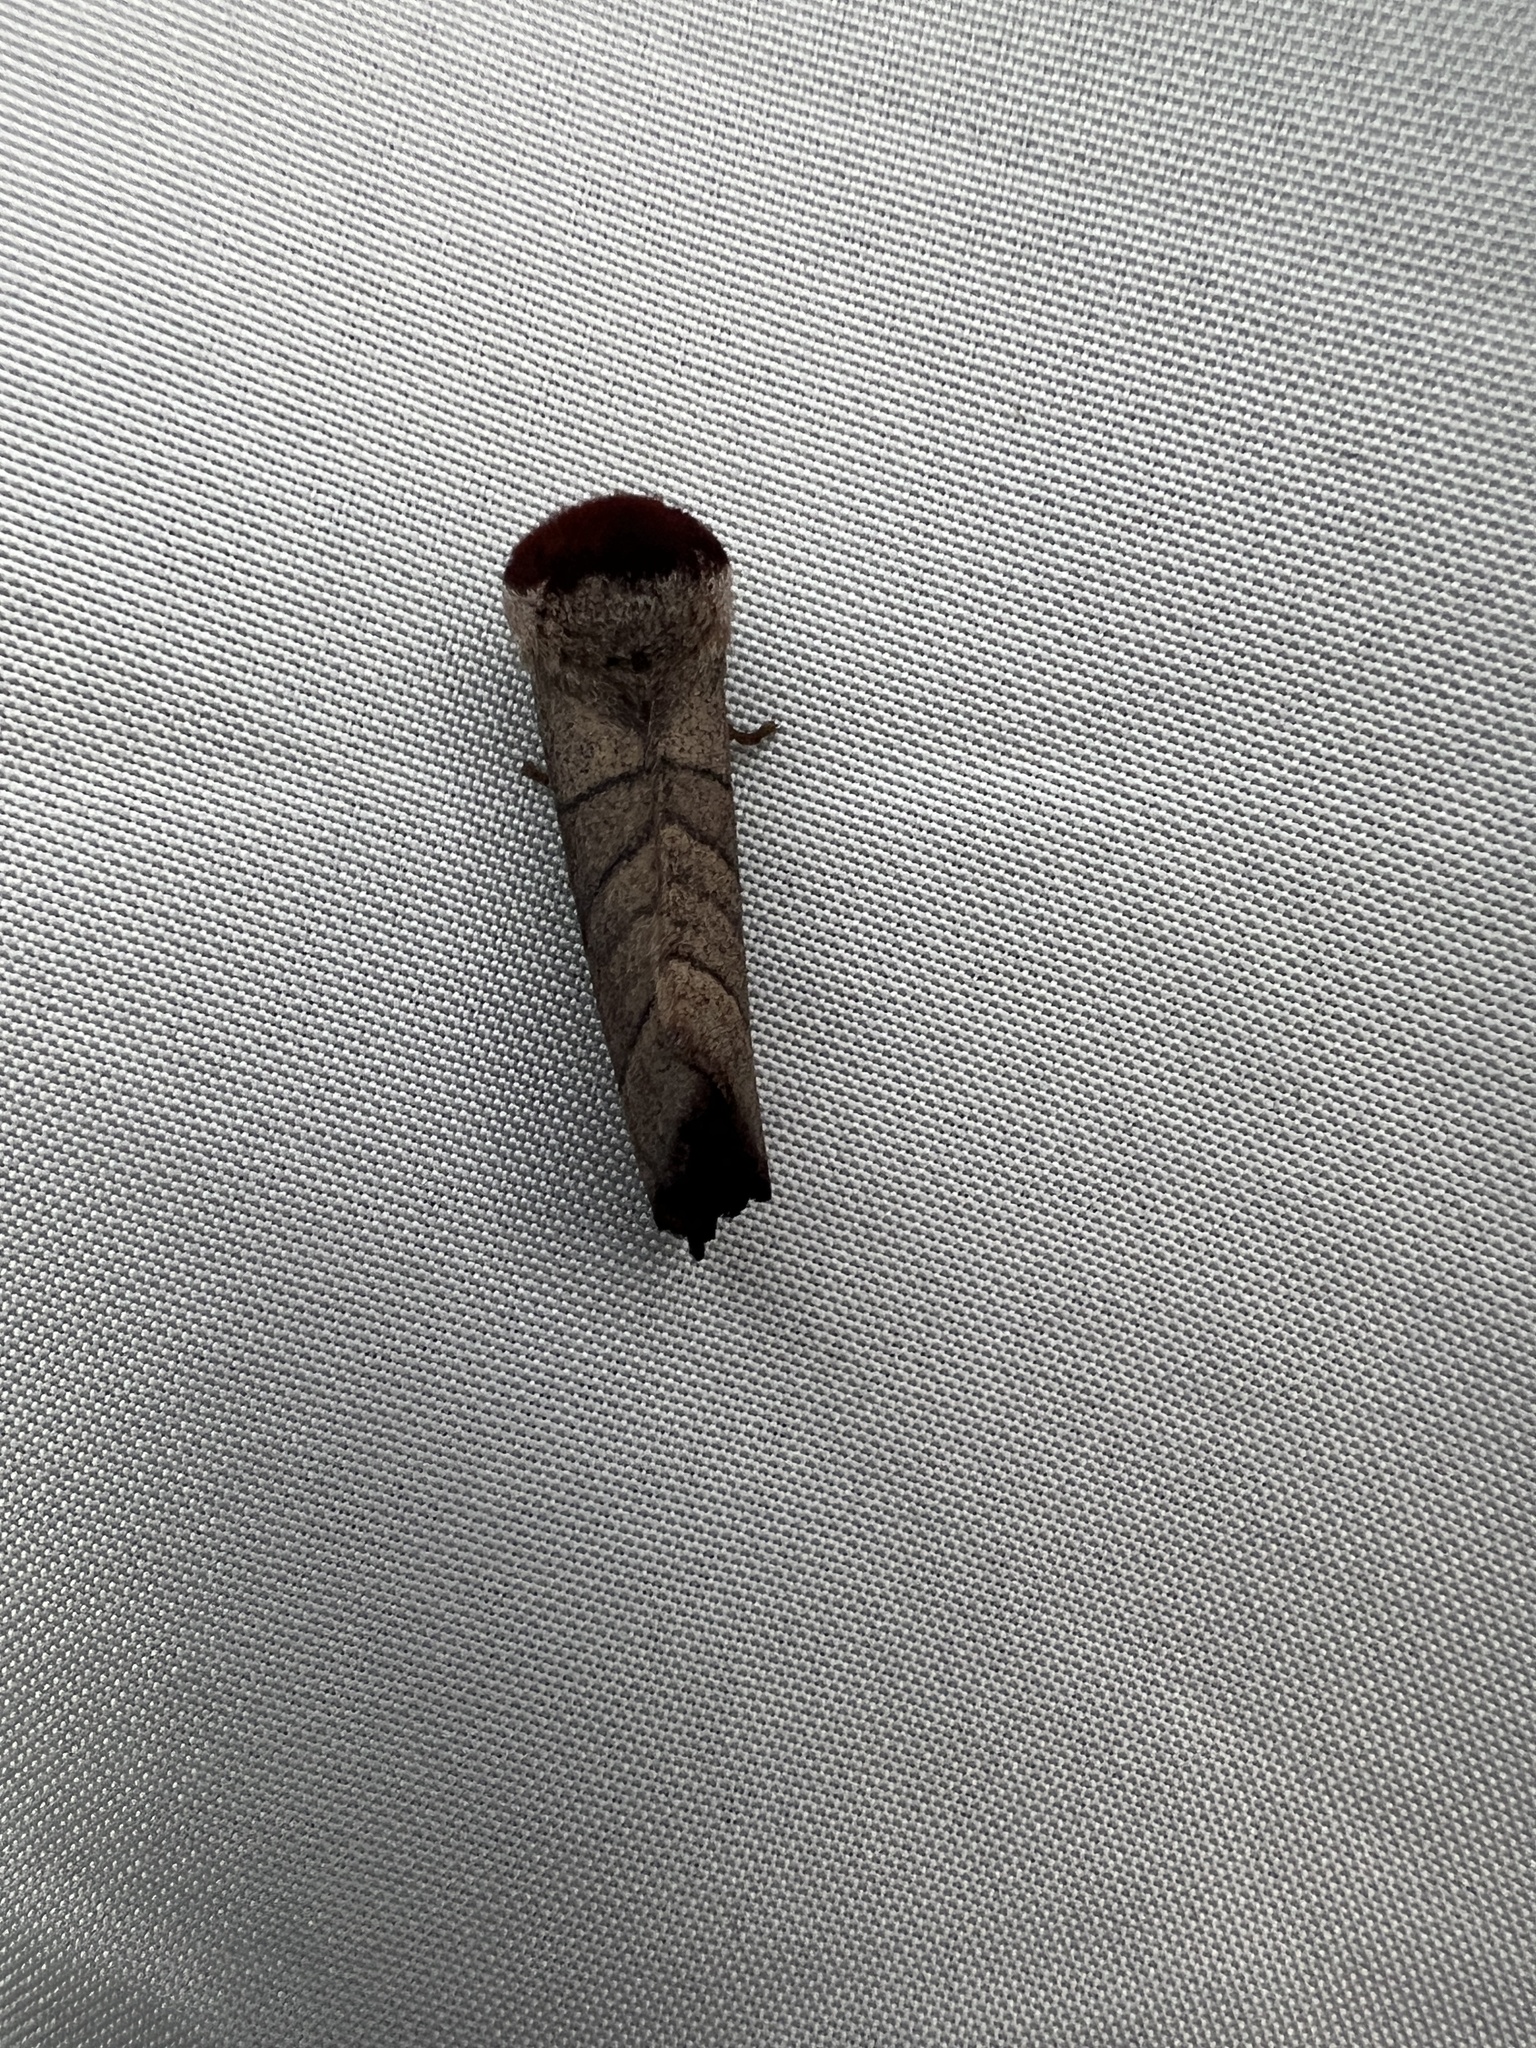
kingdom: Animalia
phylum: Arthropoda
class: Insecta
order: Lepidoptera
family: Notodontidae
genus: Datana
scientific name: Datana ministra
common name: Yellow-necked caterpillar moth
